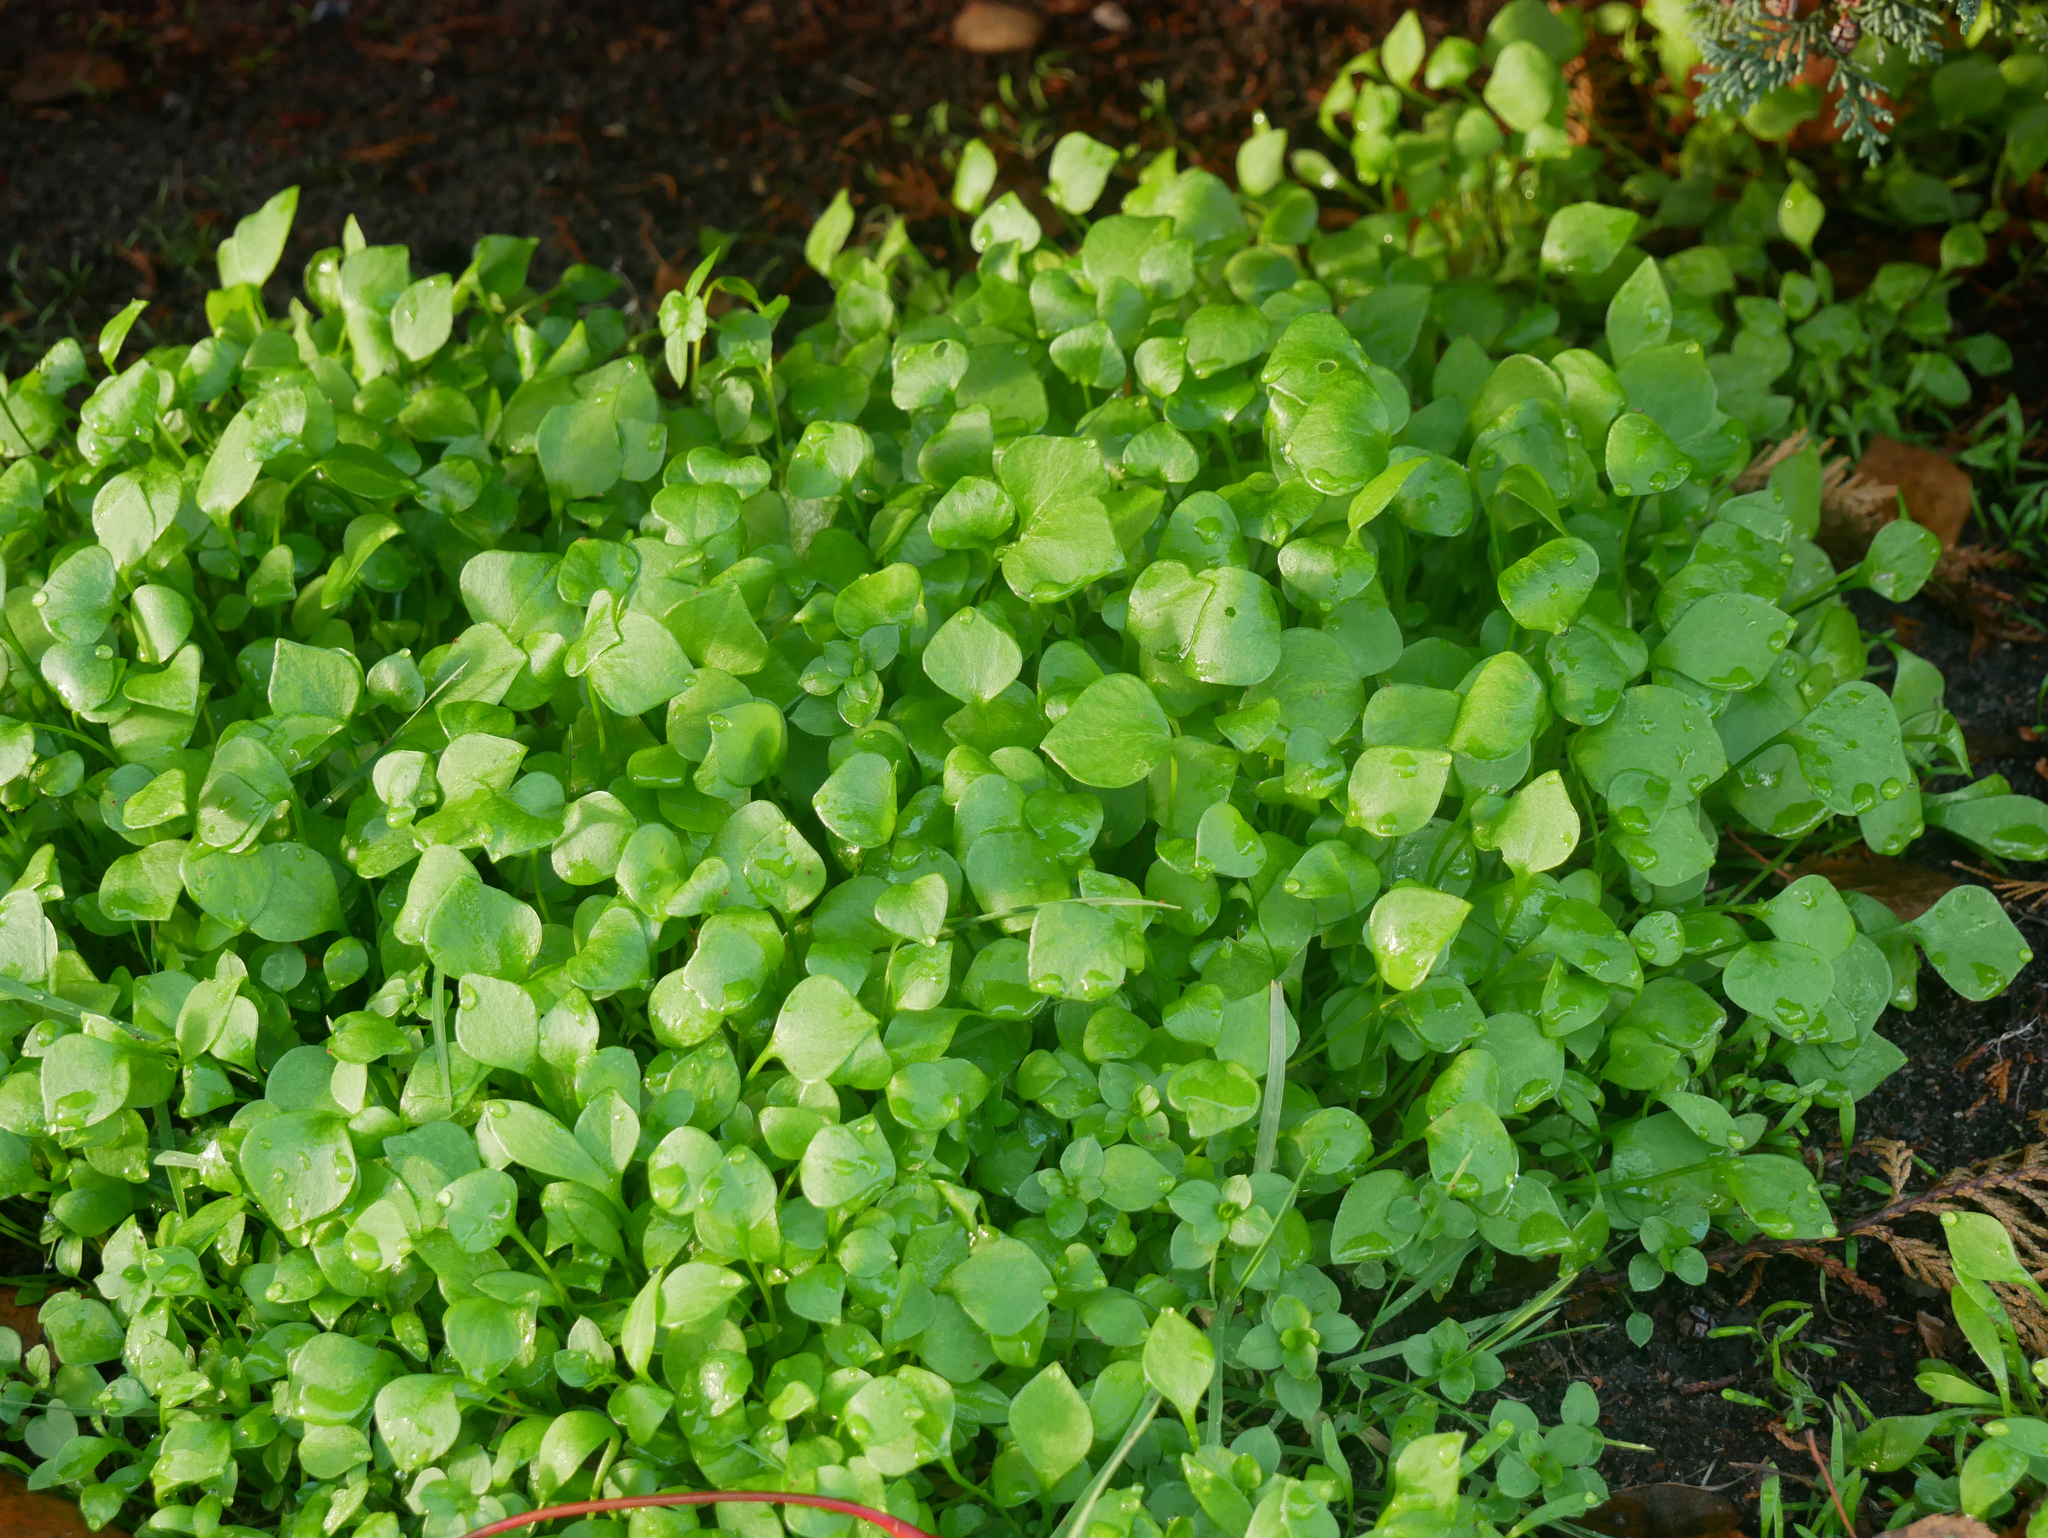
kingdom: Plantae
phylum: Tracheophyta
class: Magnoliopsida
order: Caryophyllales
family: Montiaceae
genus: Claytonia
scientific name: Claytonia perfoliata
